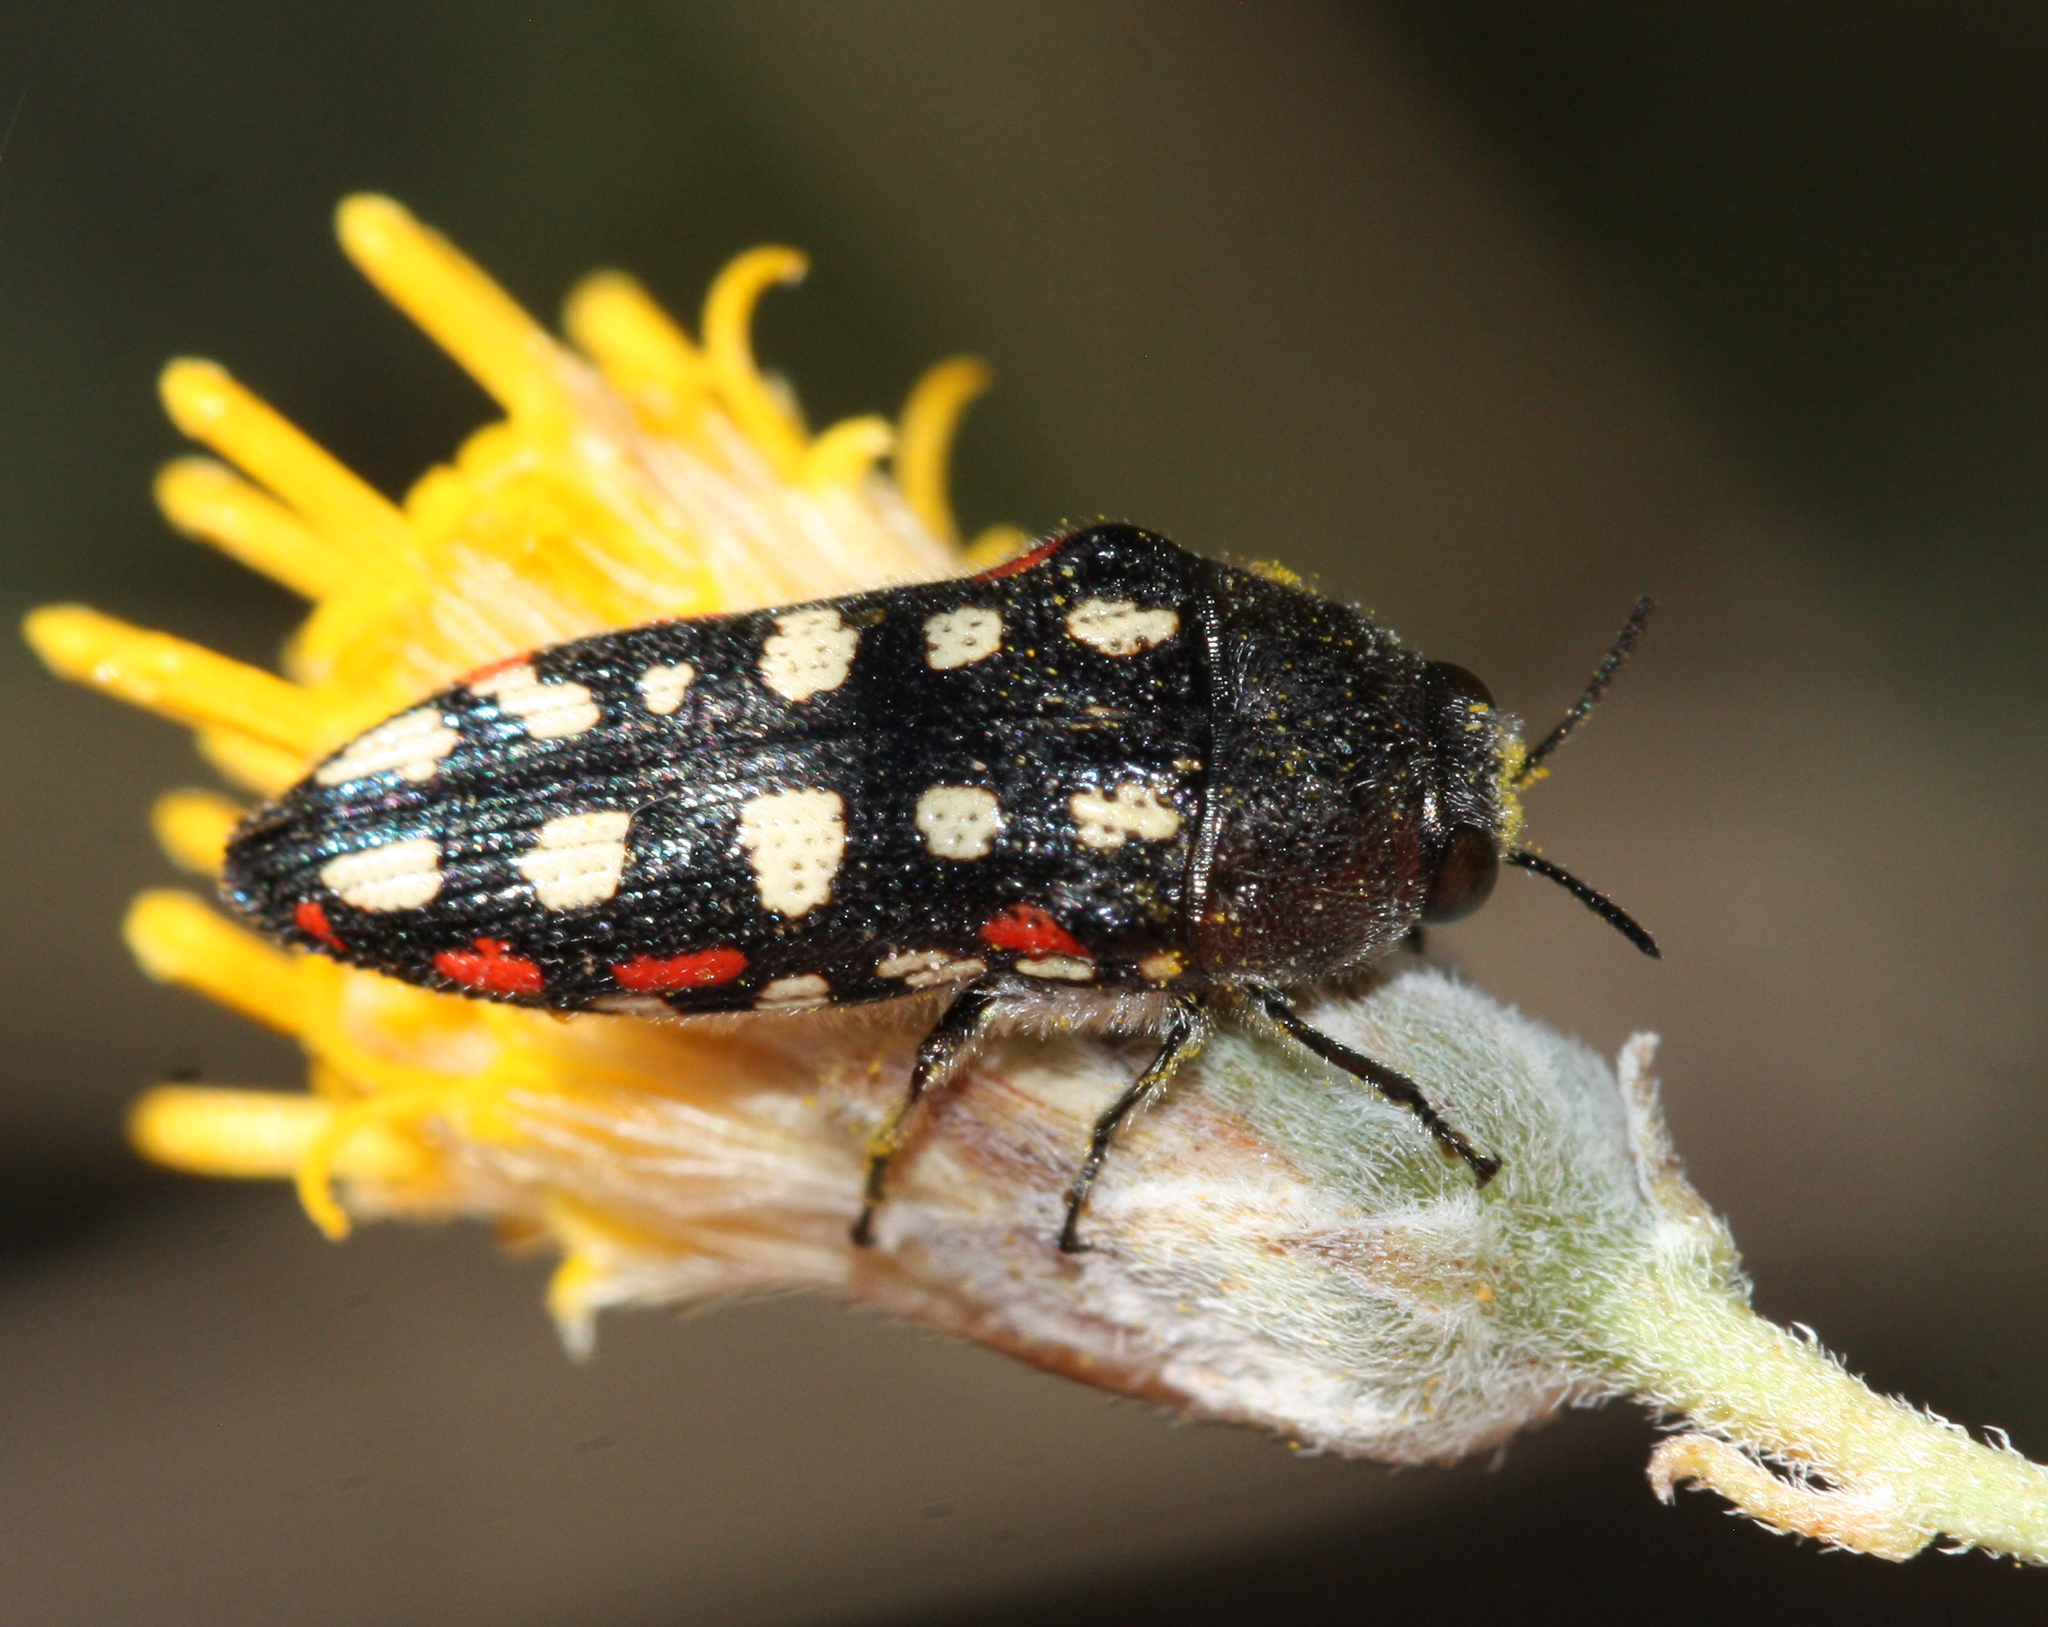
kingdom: Animalia
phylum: Arthropoda
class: Insecta
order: Coleoptera
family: Buprestidae
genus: Acmaeodera
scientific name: Acmaeodera gibbula
